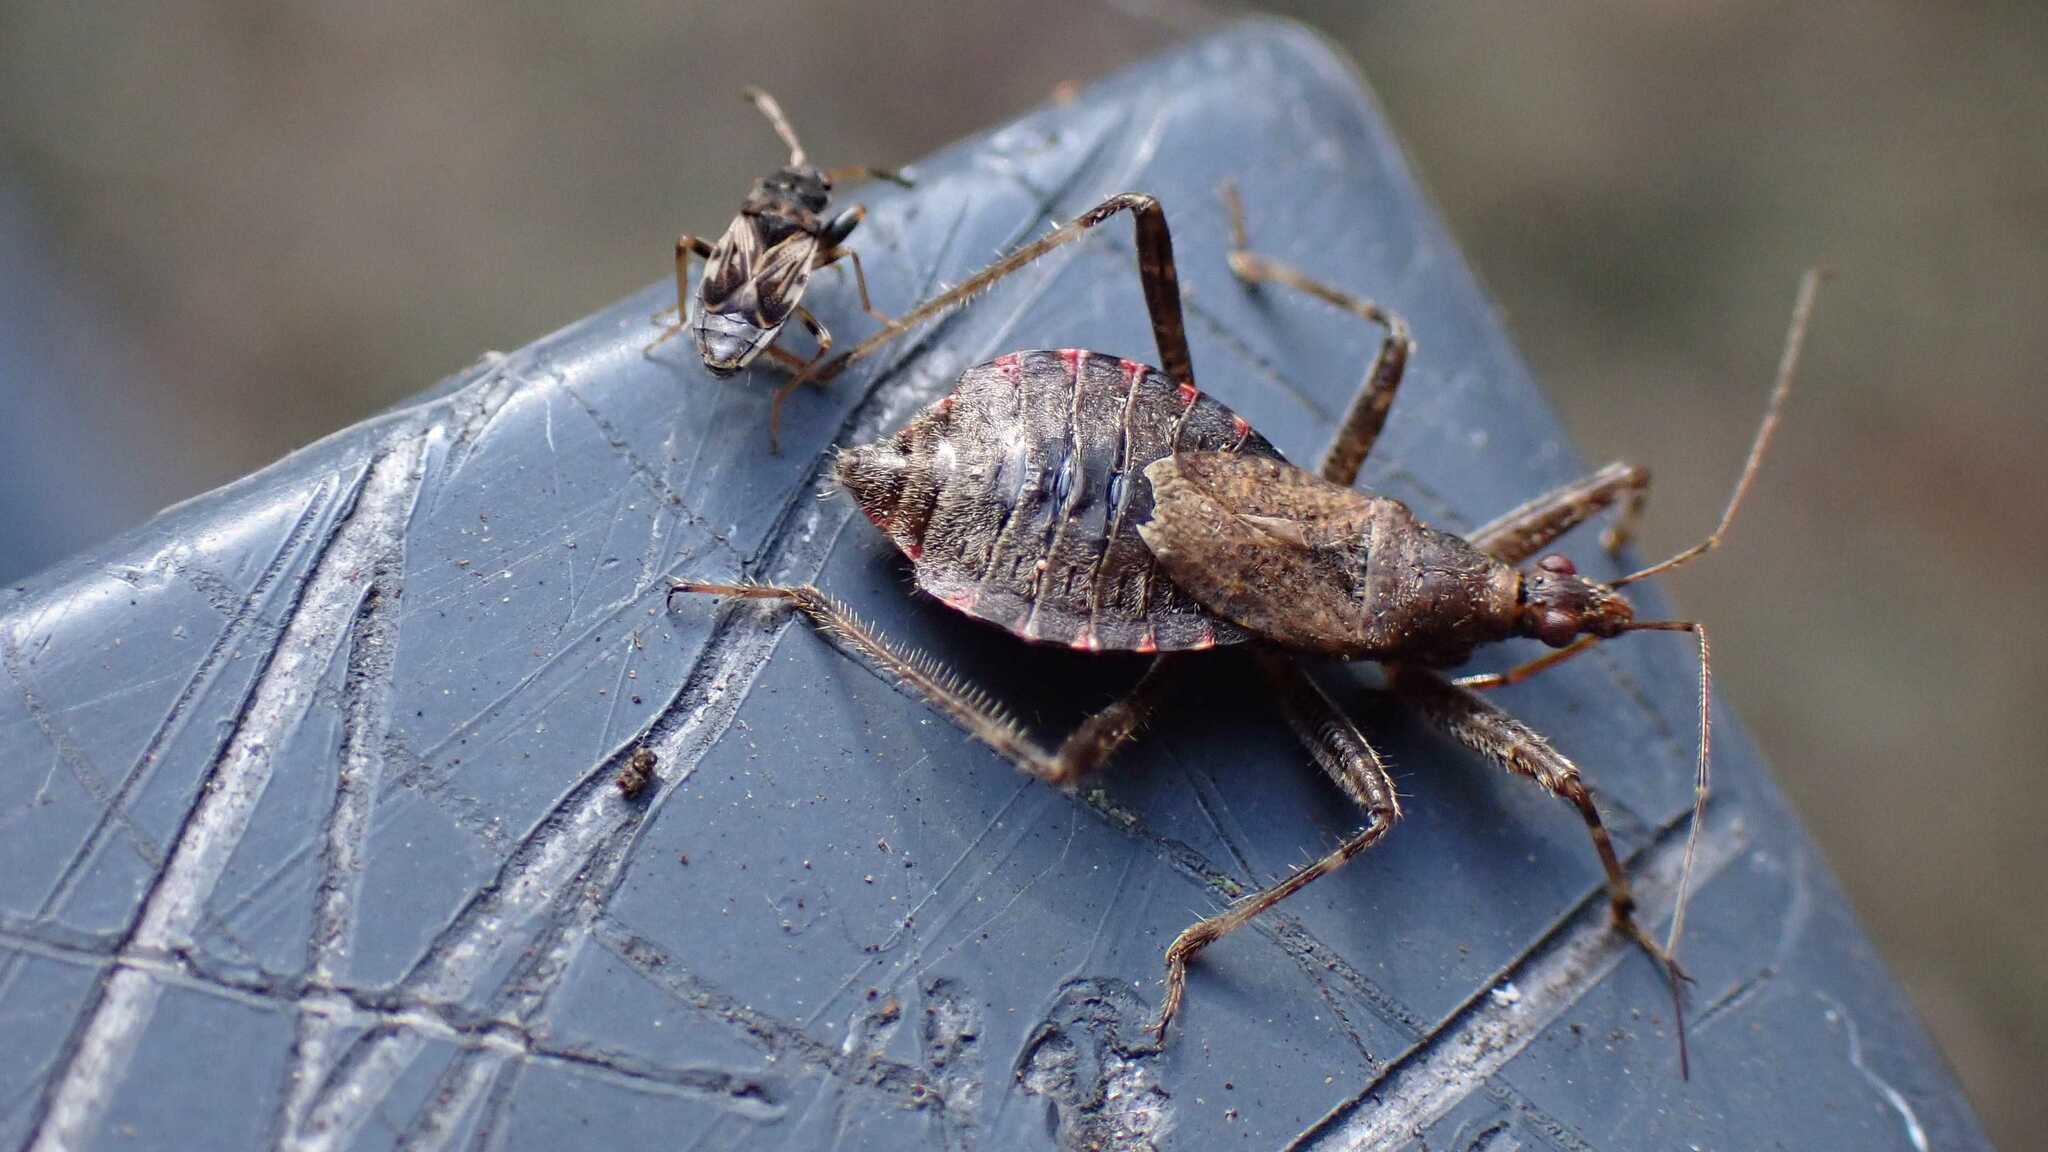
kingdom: Animalia
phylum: Arthropoda
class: Insecta
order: Hemiptera
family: Nabidae
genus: Himacerus
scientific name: Himacerus apterus
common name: Tree damsel bug
